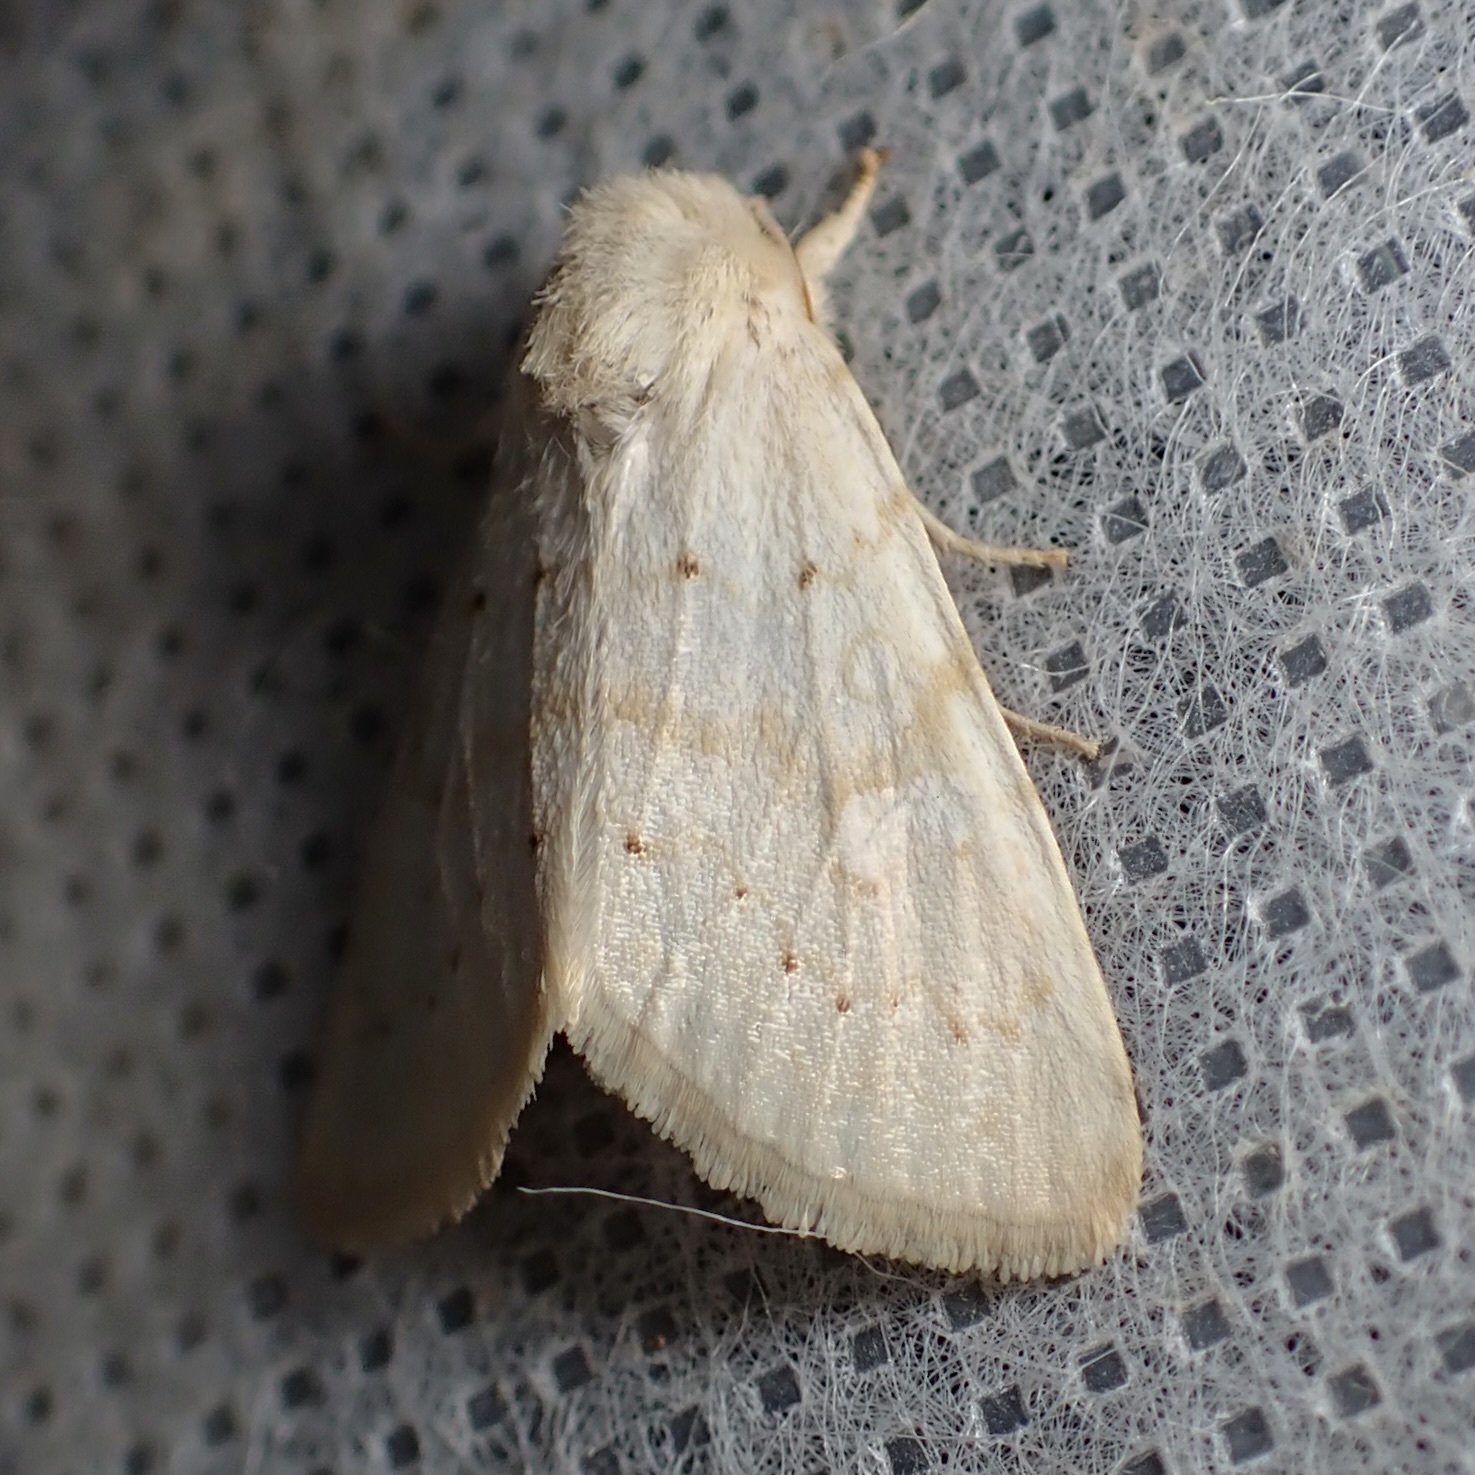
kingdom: Animalia
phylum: Arthropoda
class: Insecta
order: Lepidoptera
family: Noctuidae
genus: Oslaria
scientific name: Oslaria pura
